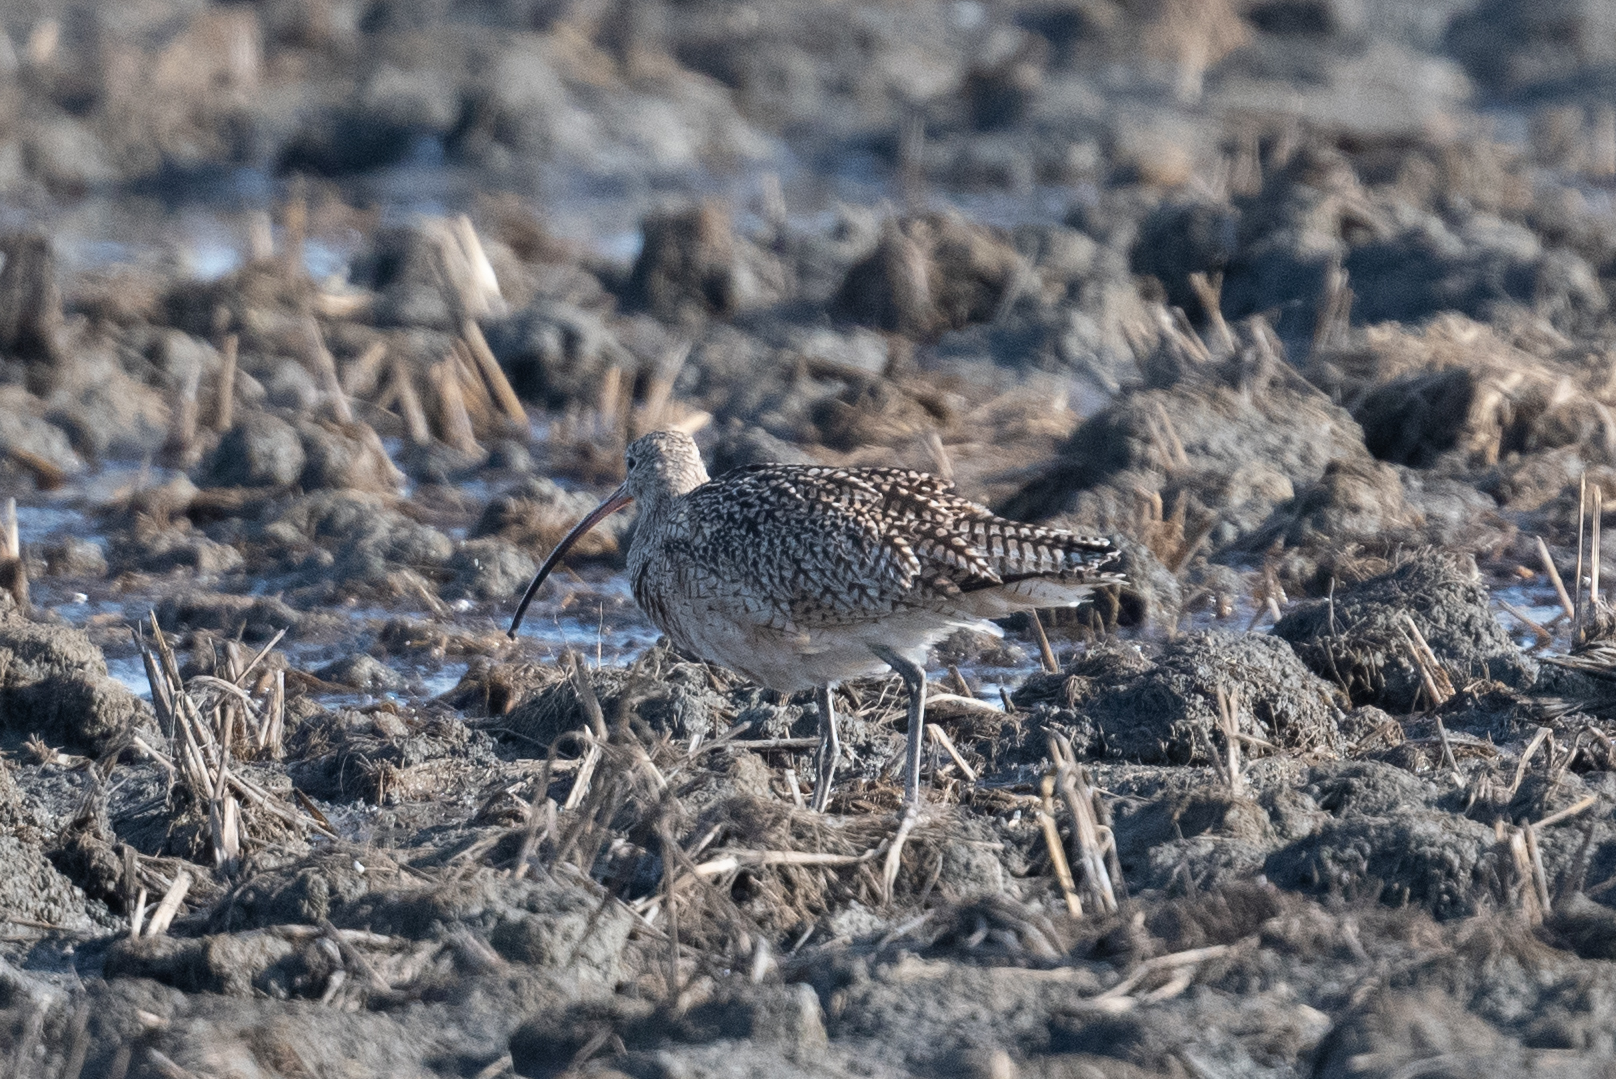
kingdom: Animalia
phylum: Chordata
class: Aves
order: Charadriiformes
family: Scolopacidae
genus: Numenius
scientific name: Numenius americanus
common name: Long-billed curlew
